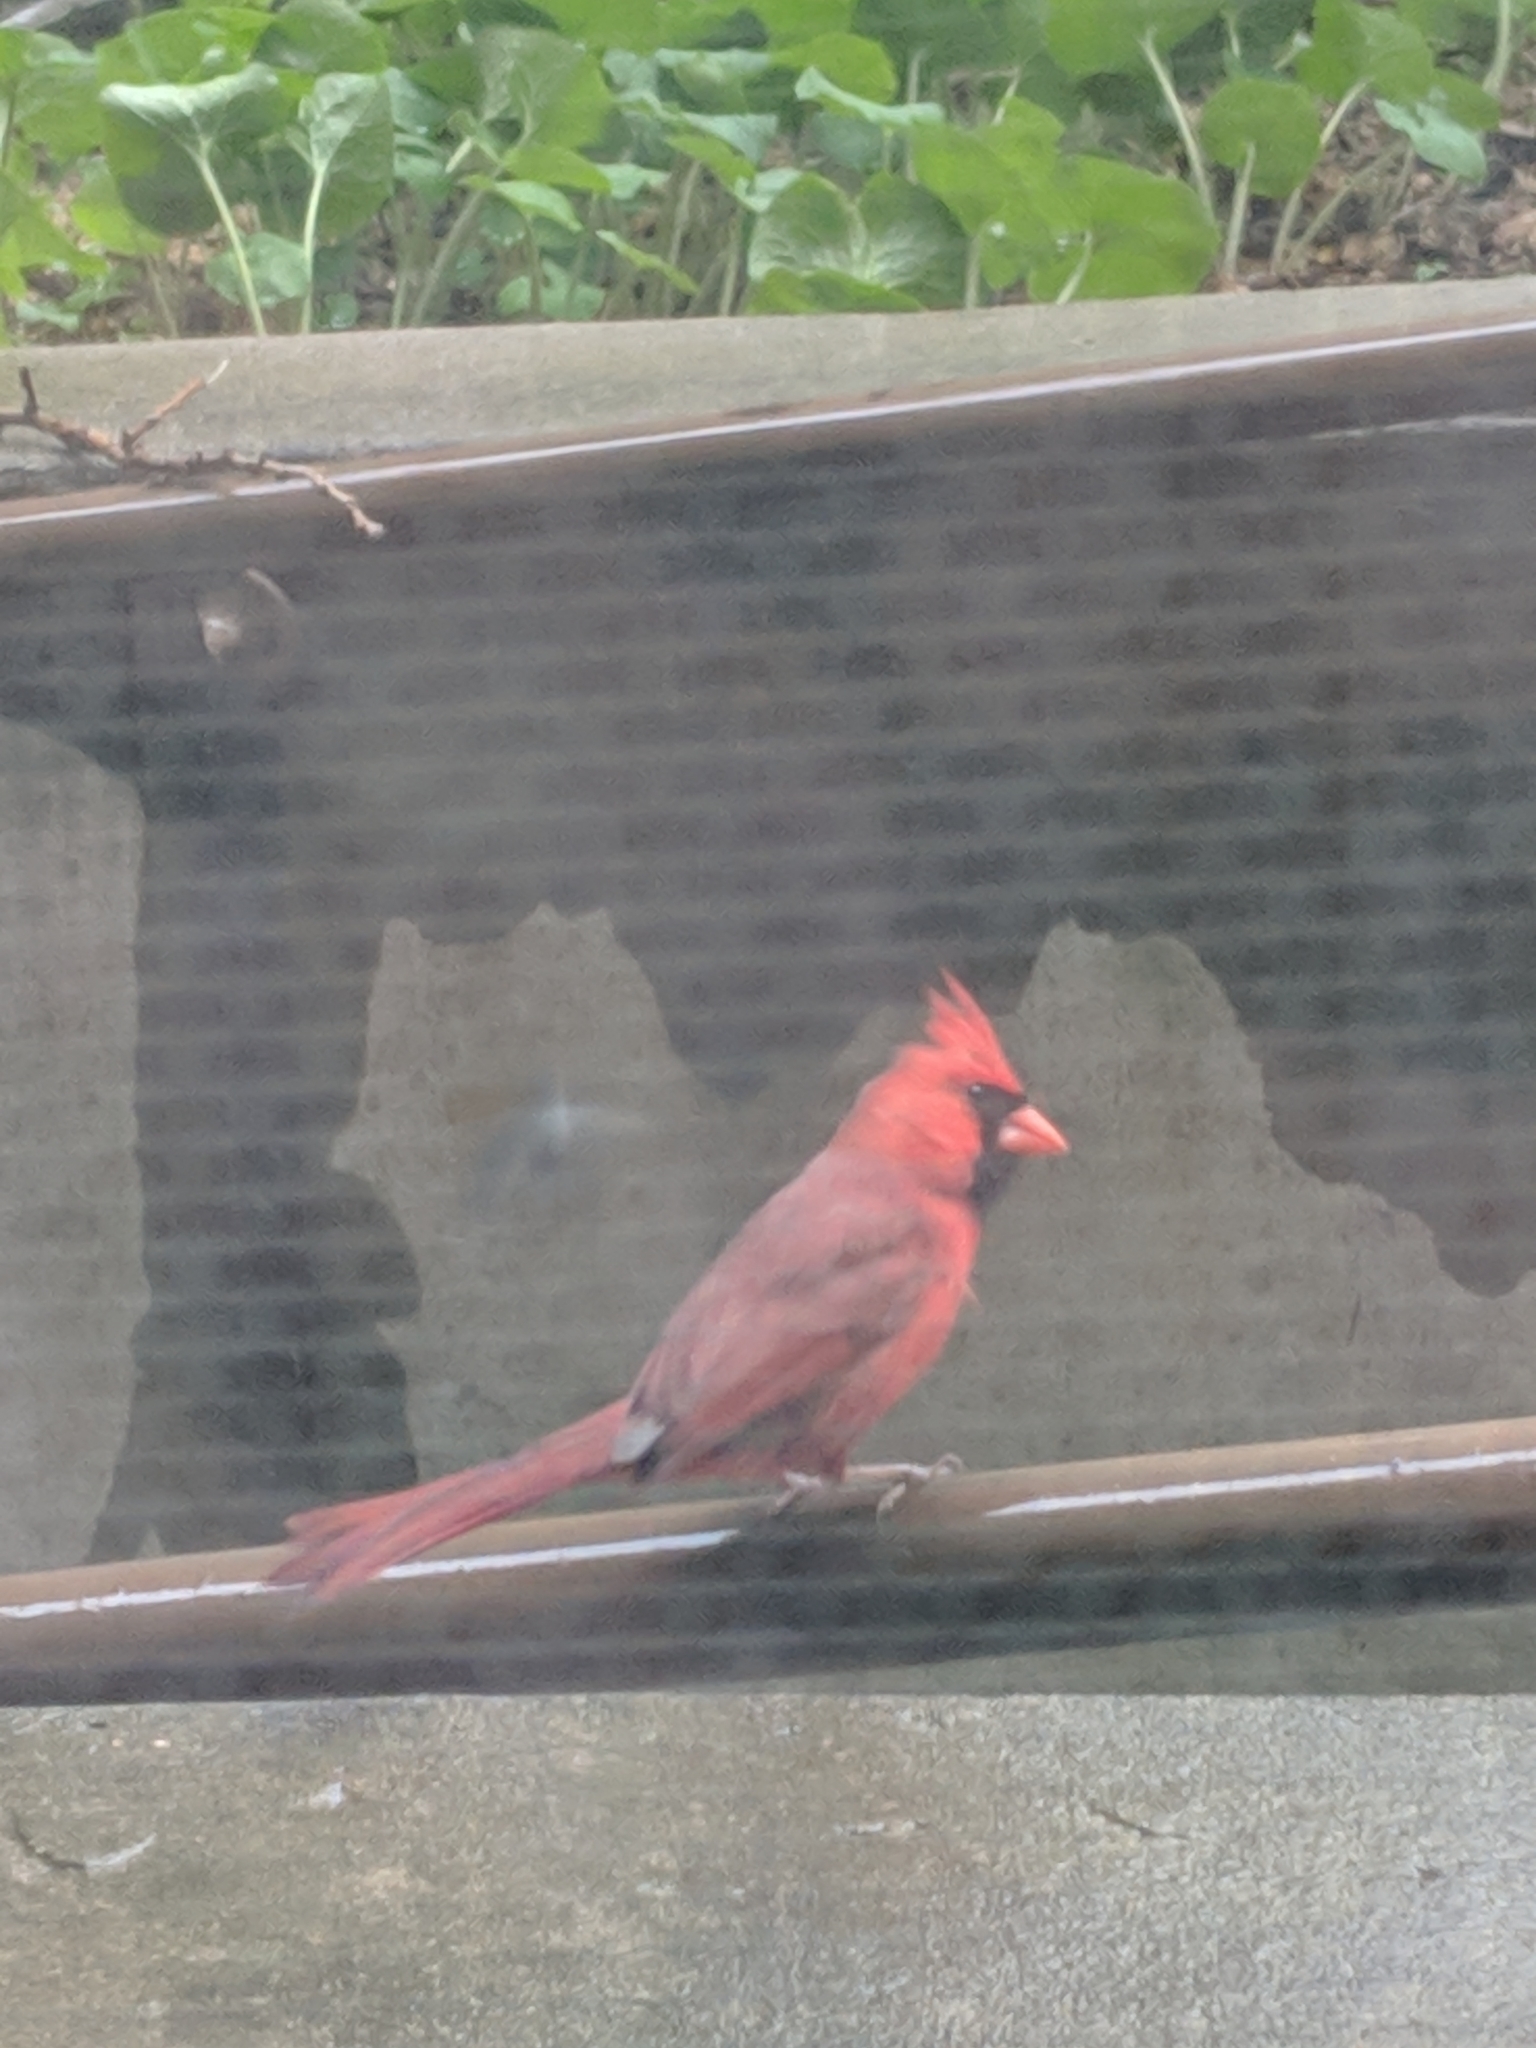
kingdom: Animalia
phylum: Chordata
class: Aves
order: Passeriformes
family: Cardinalidae
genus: Cardinalis
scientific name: Cardinalis cardinalis
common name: Northern cardinal
